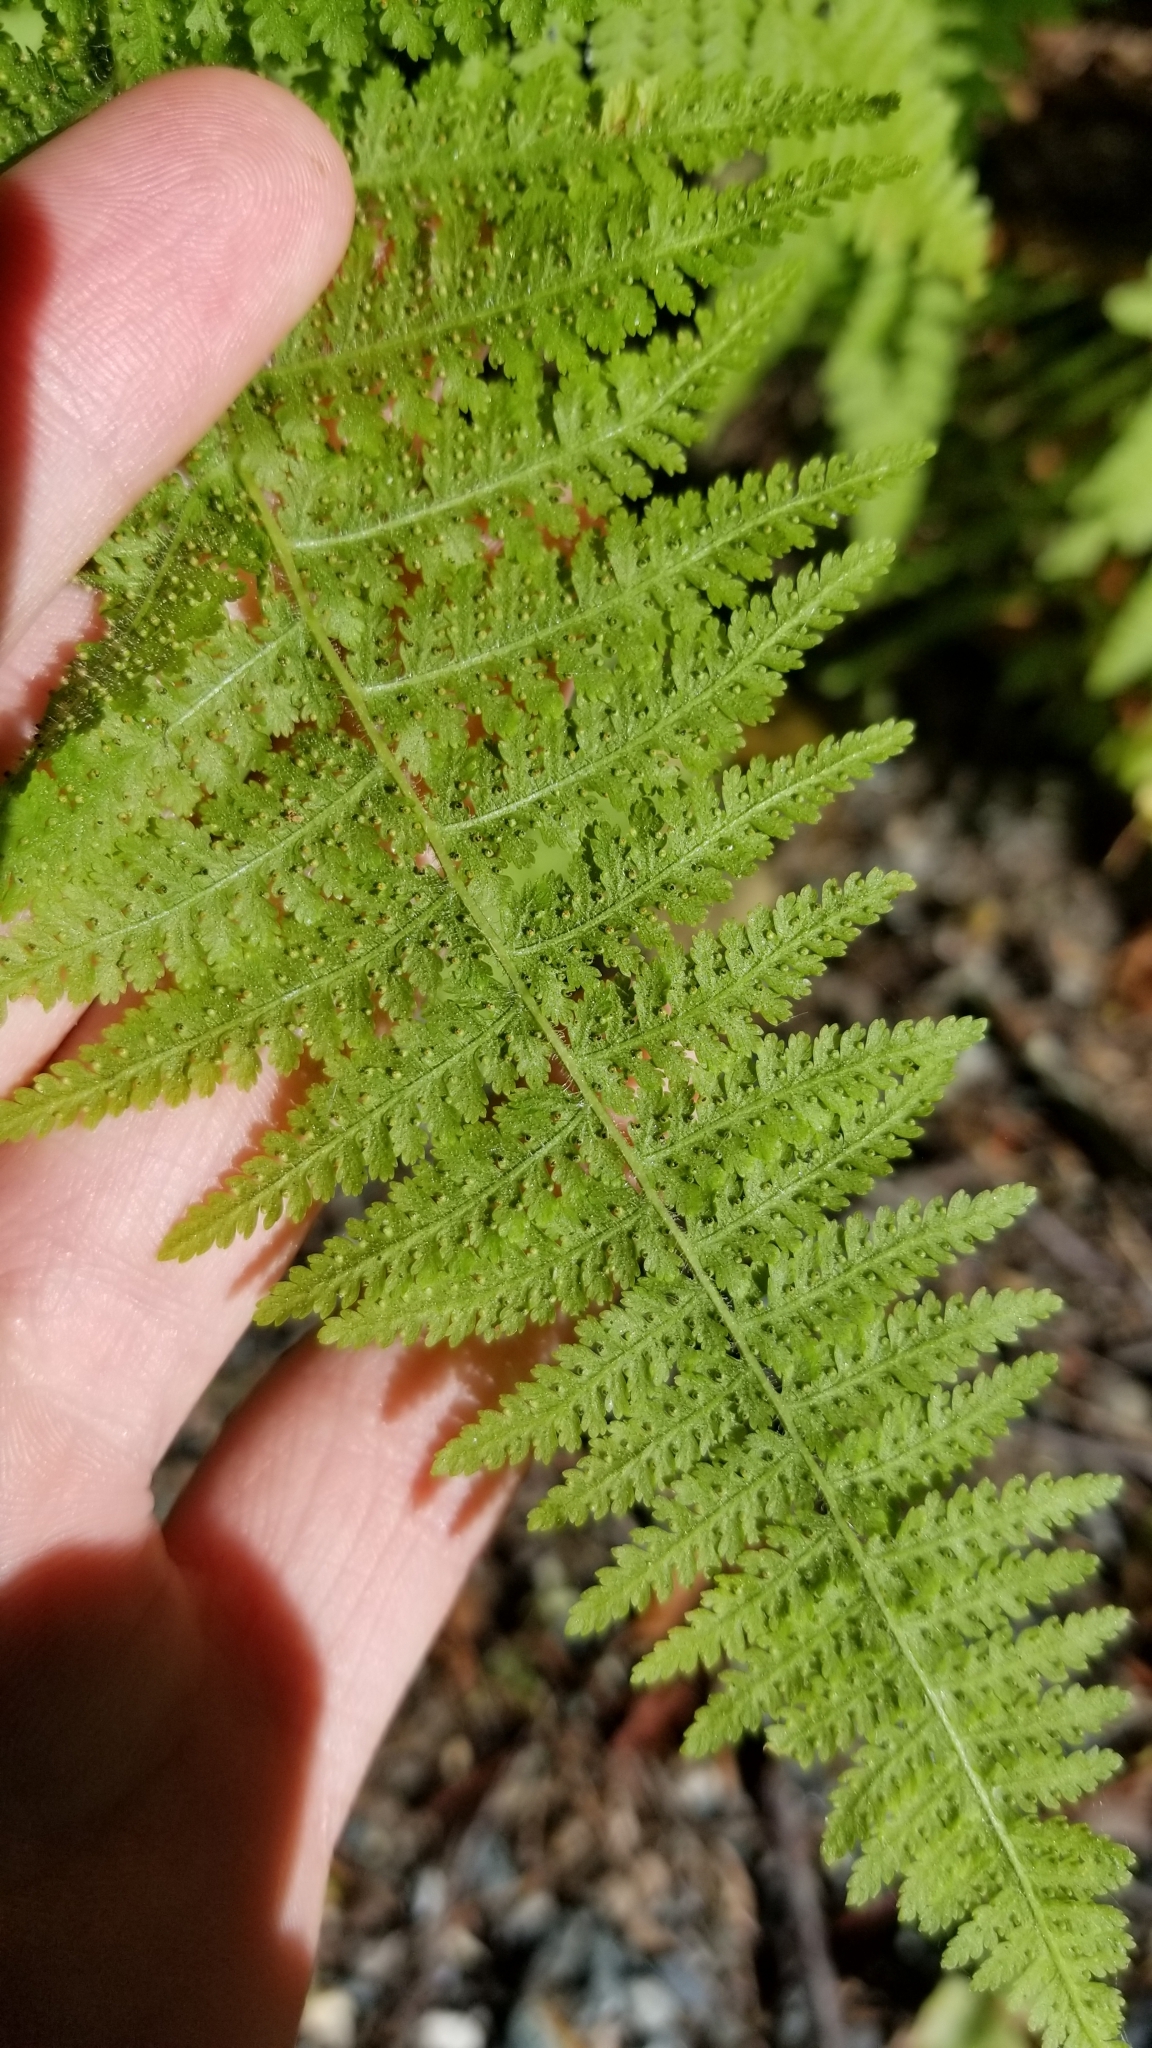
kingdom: Plantae
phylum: Tracheophyta
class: Polypodiopsida
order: Polypodiales
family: Dennstaedtiaceae
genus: Sitobolium
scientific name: Sitobolium punctilobum
